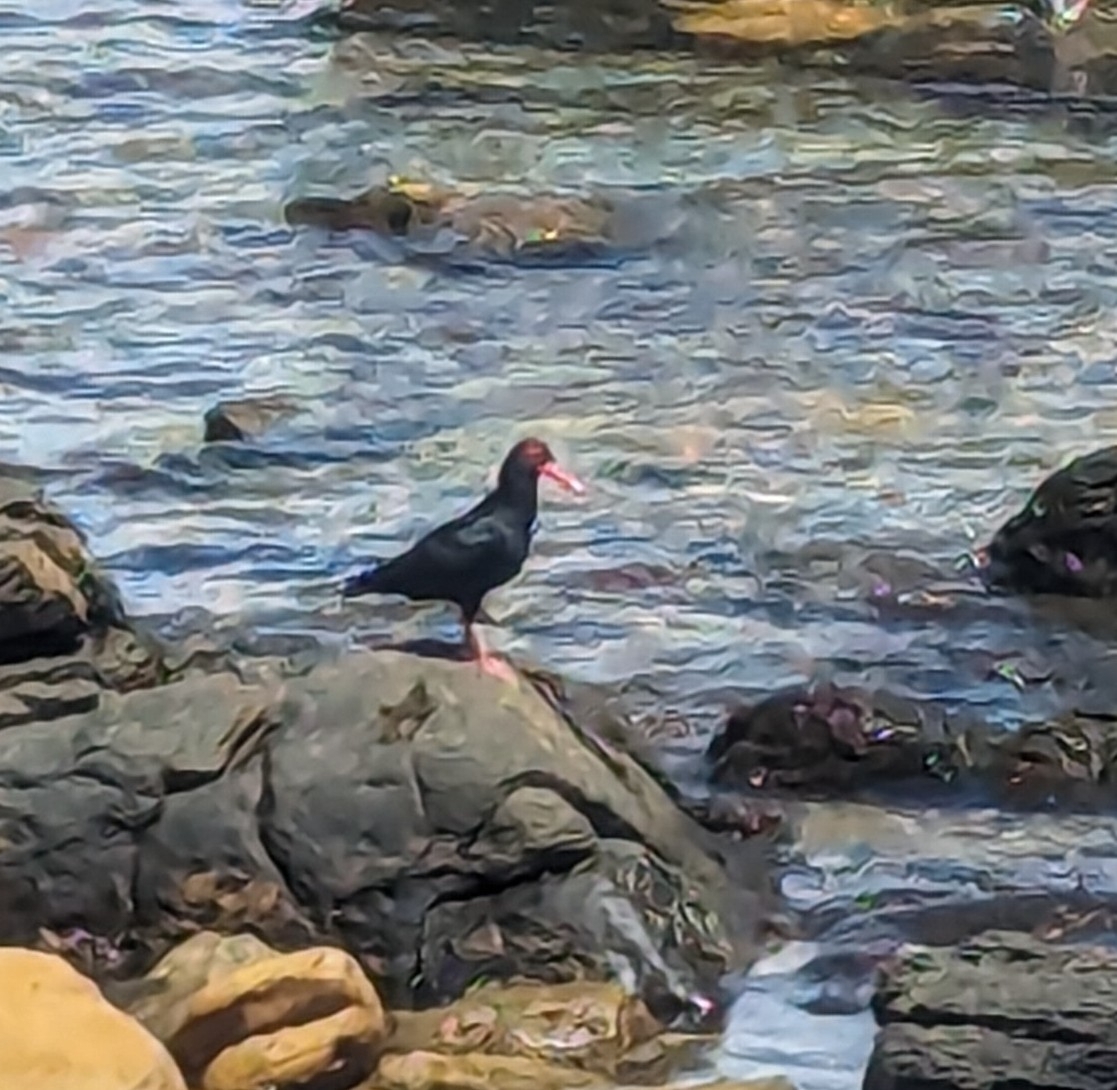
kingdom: Animalia
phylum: Chordata
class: Aves
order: Charadriiformes
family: Haematopodidae
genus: Haematopus
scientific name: Haematopus moquini
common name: African oystercatcher
